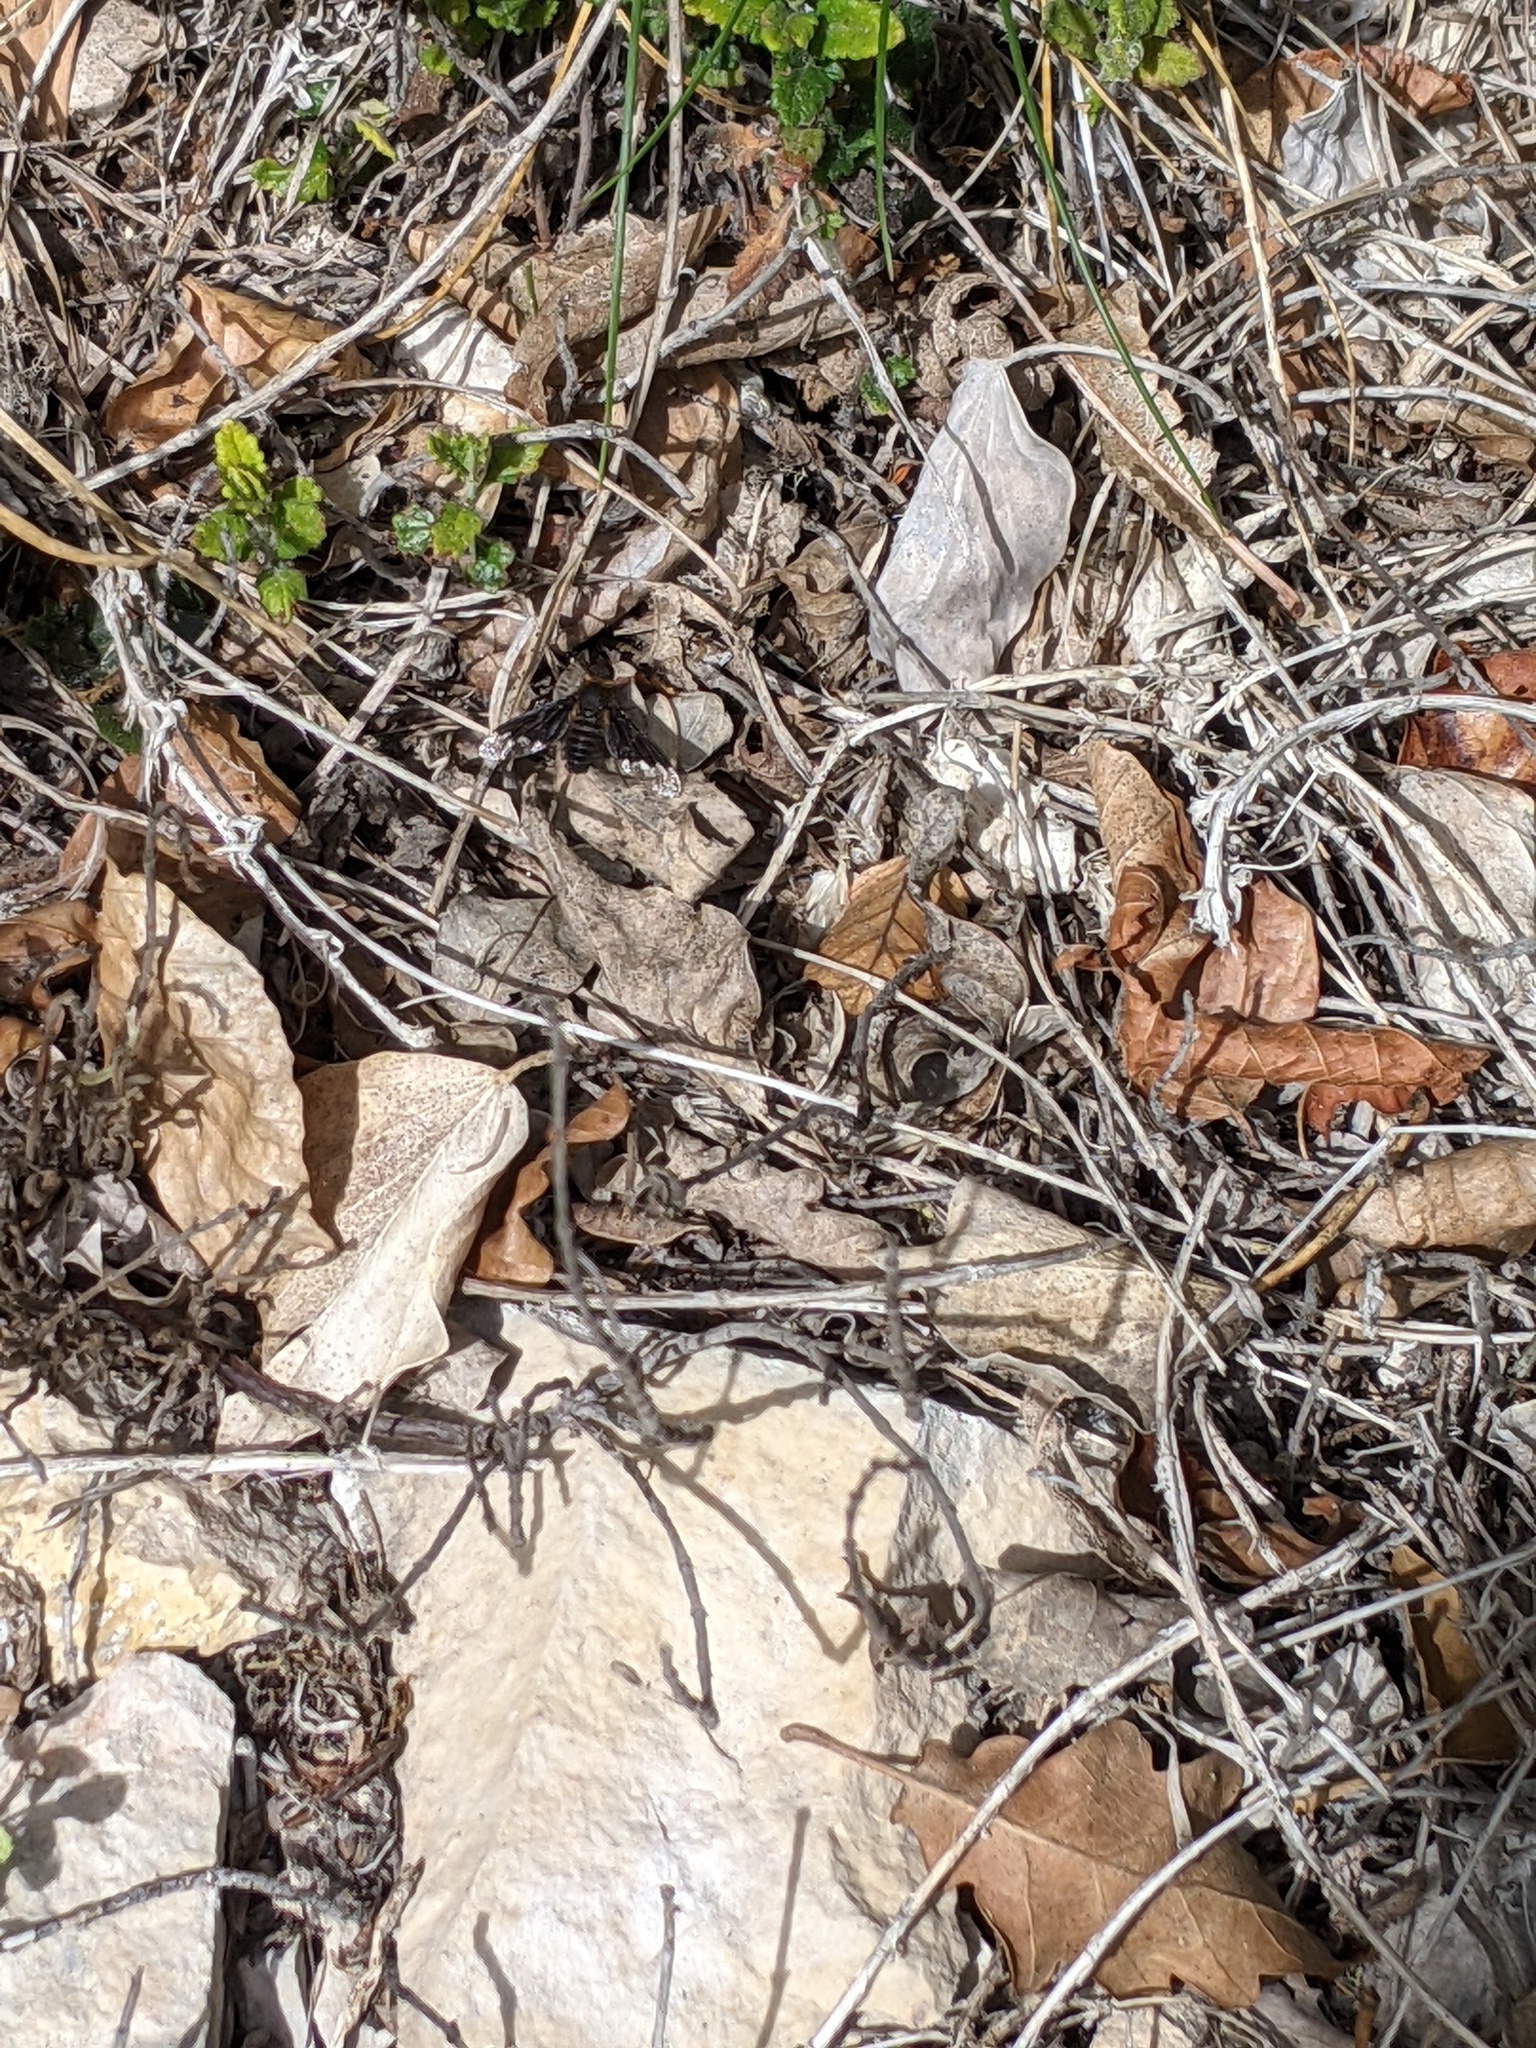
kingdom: Animalia
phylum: Arthropoda
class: Insecta
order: Diptera
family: Bombyliidae
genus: Hemipenthes
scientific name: Hemipenthes morio
